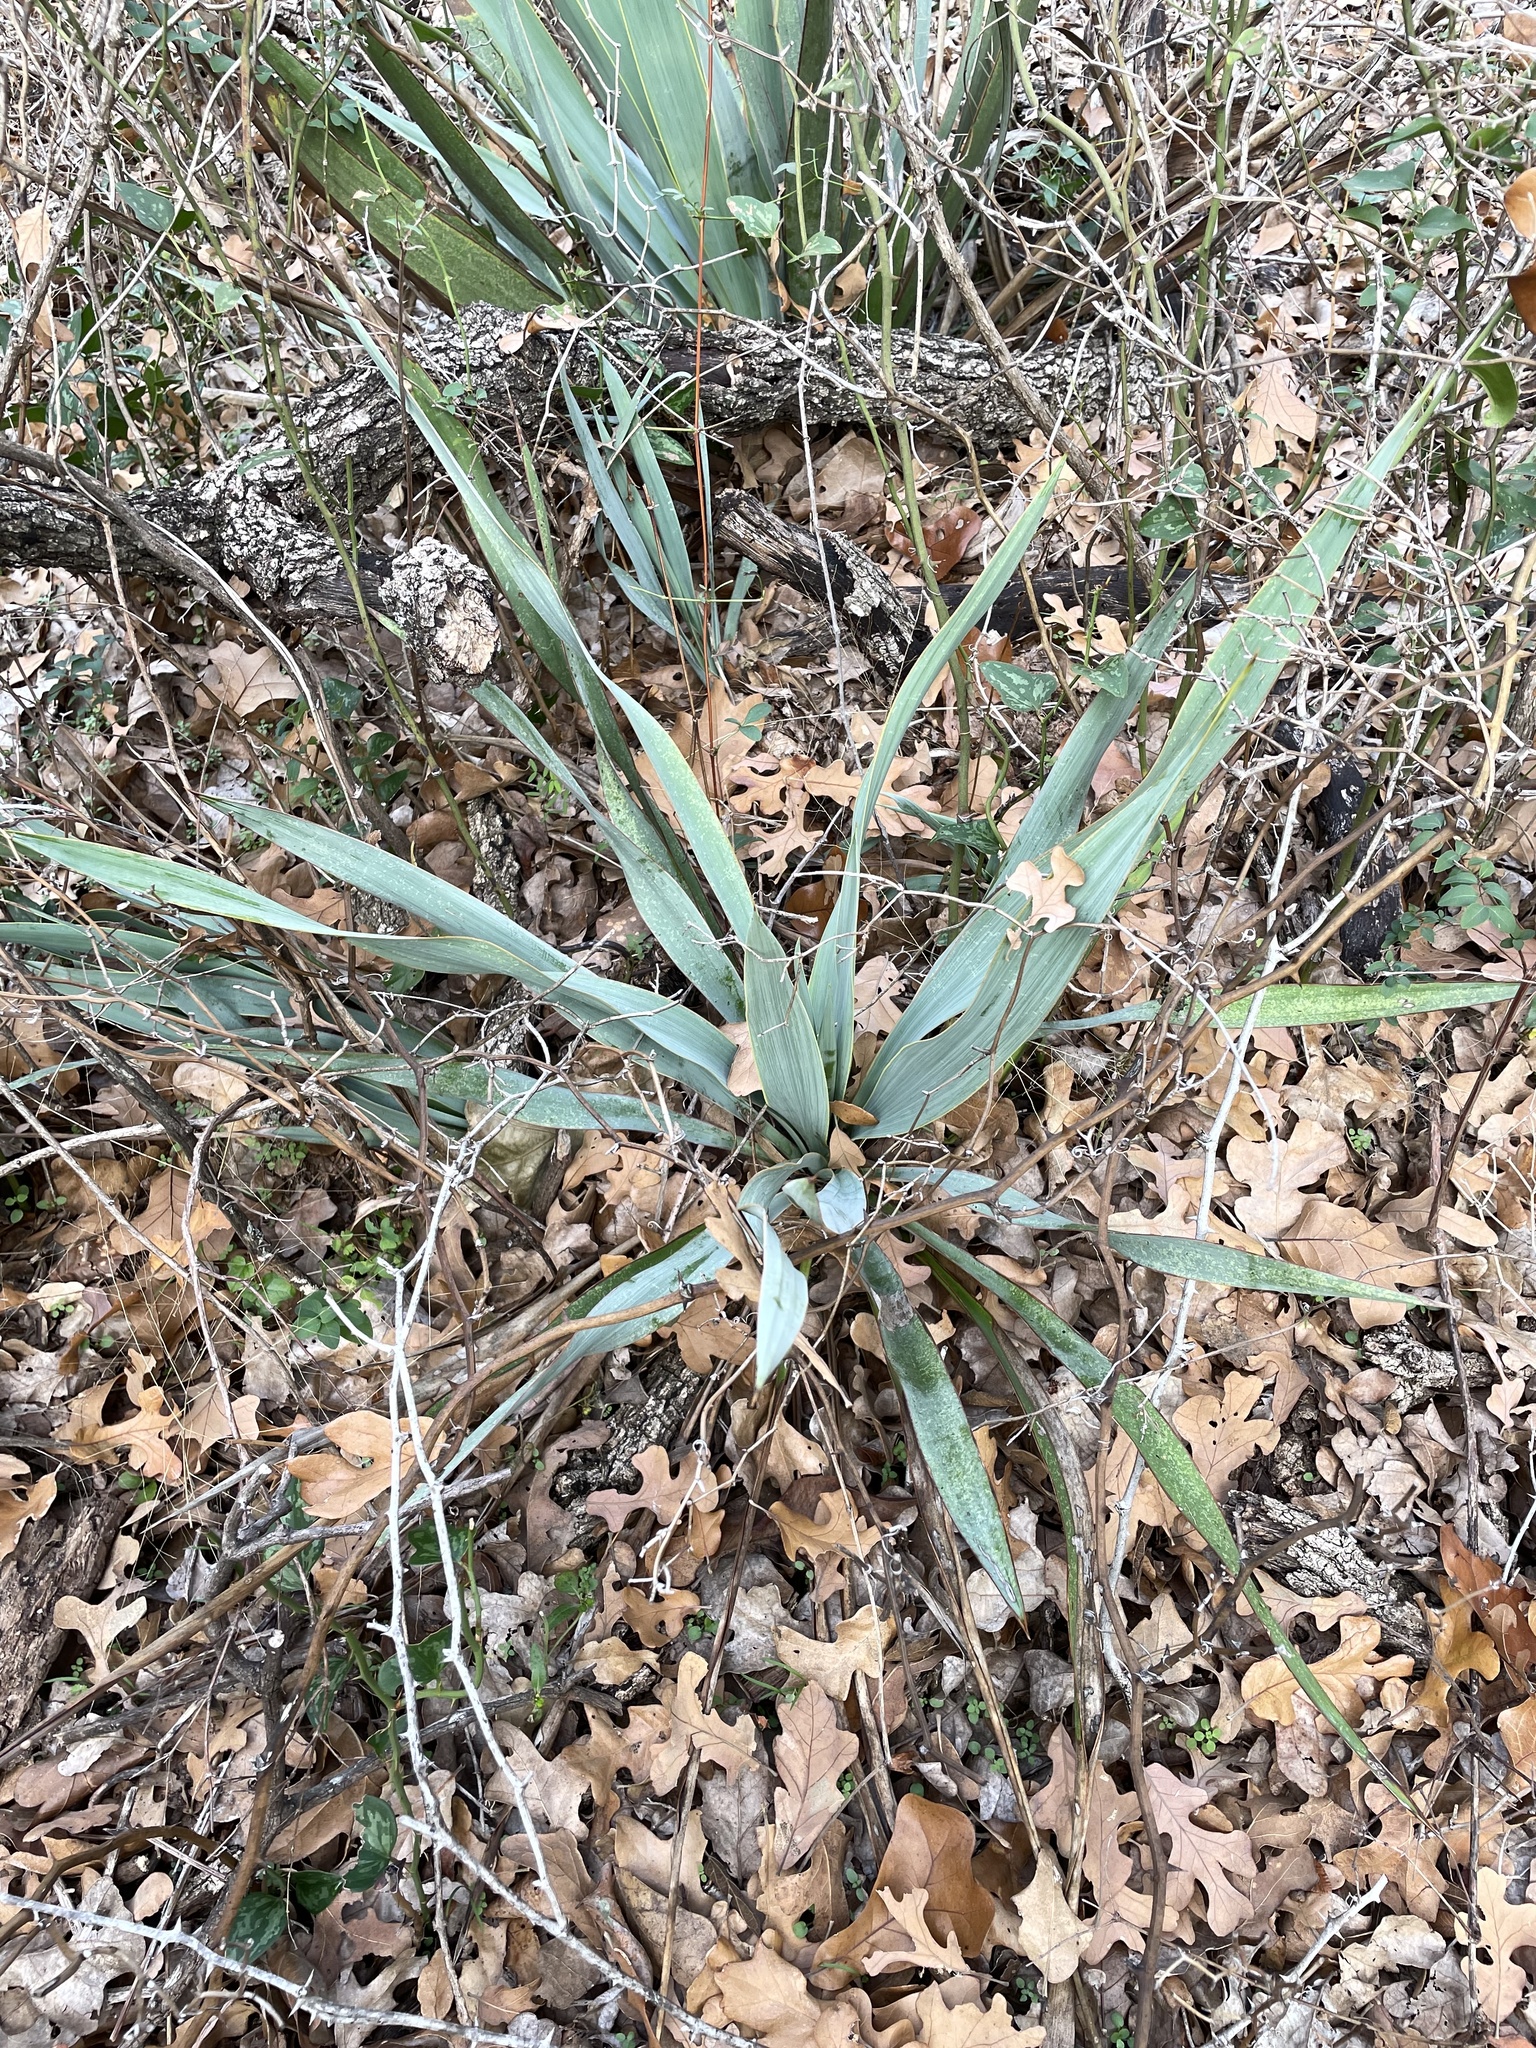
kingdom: Plantae
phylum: Tracheophyta
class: Liliopsida
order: Asparagales
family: Asparagaceae
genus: Yucca
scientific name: Yucca rupicola
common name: Twisted-leaf spanish-dagger
